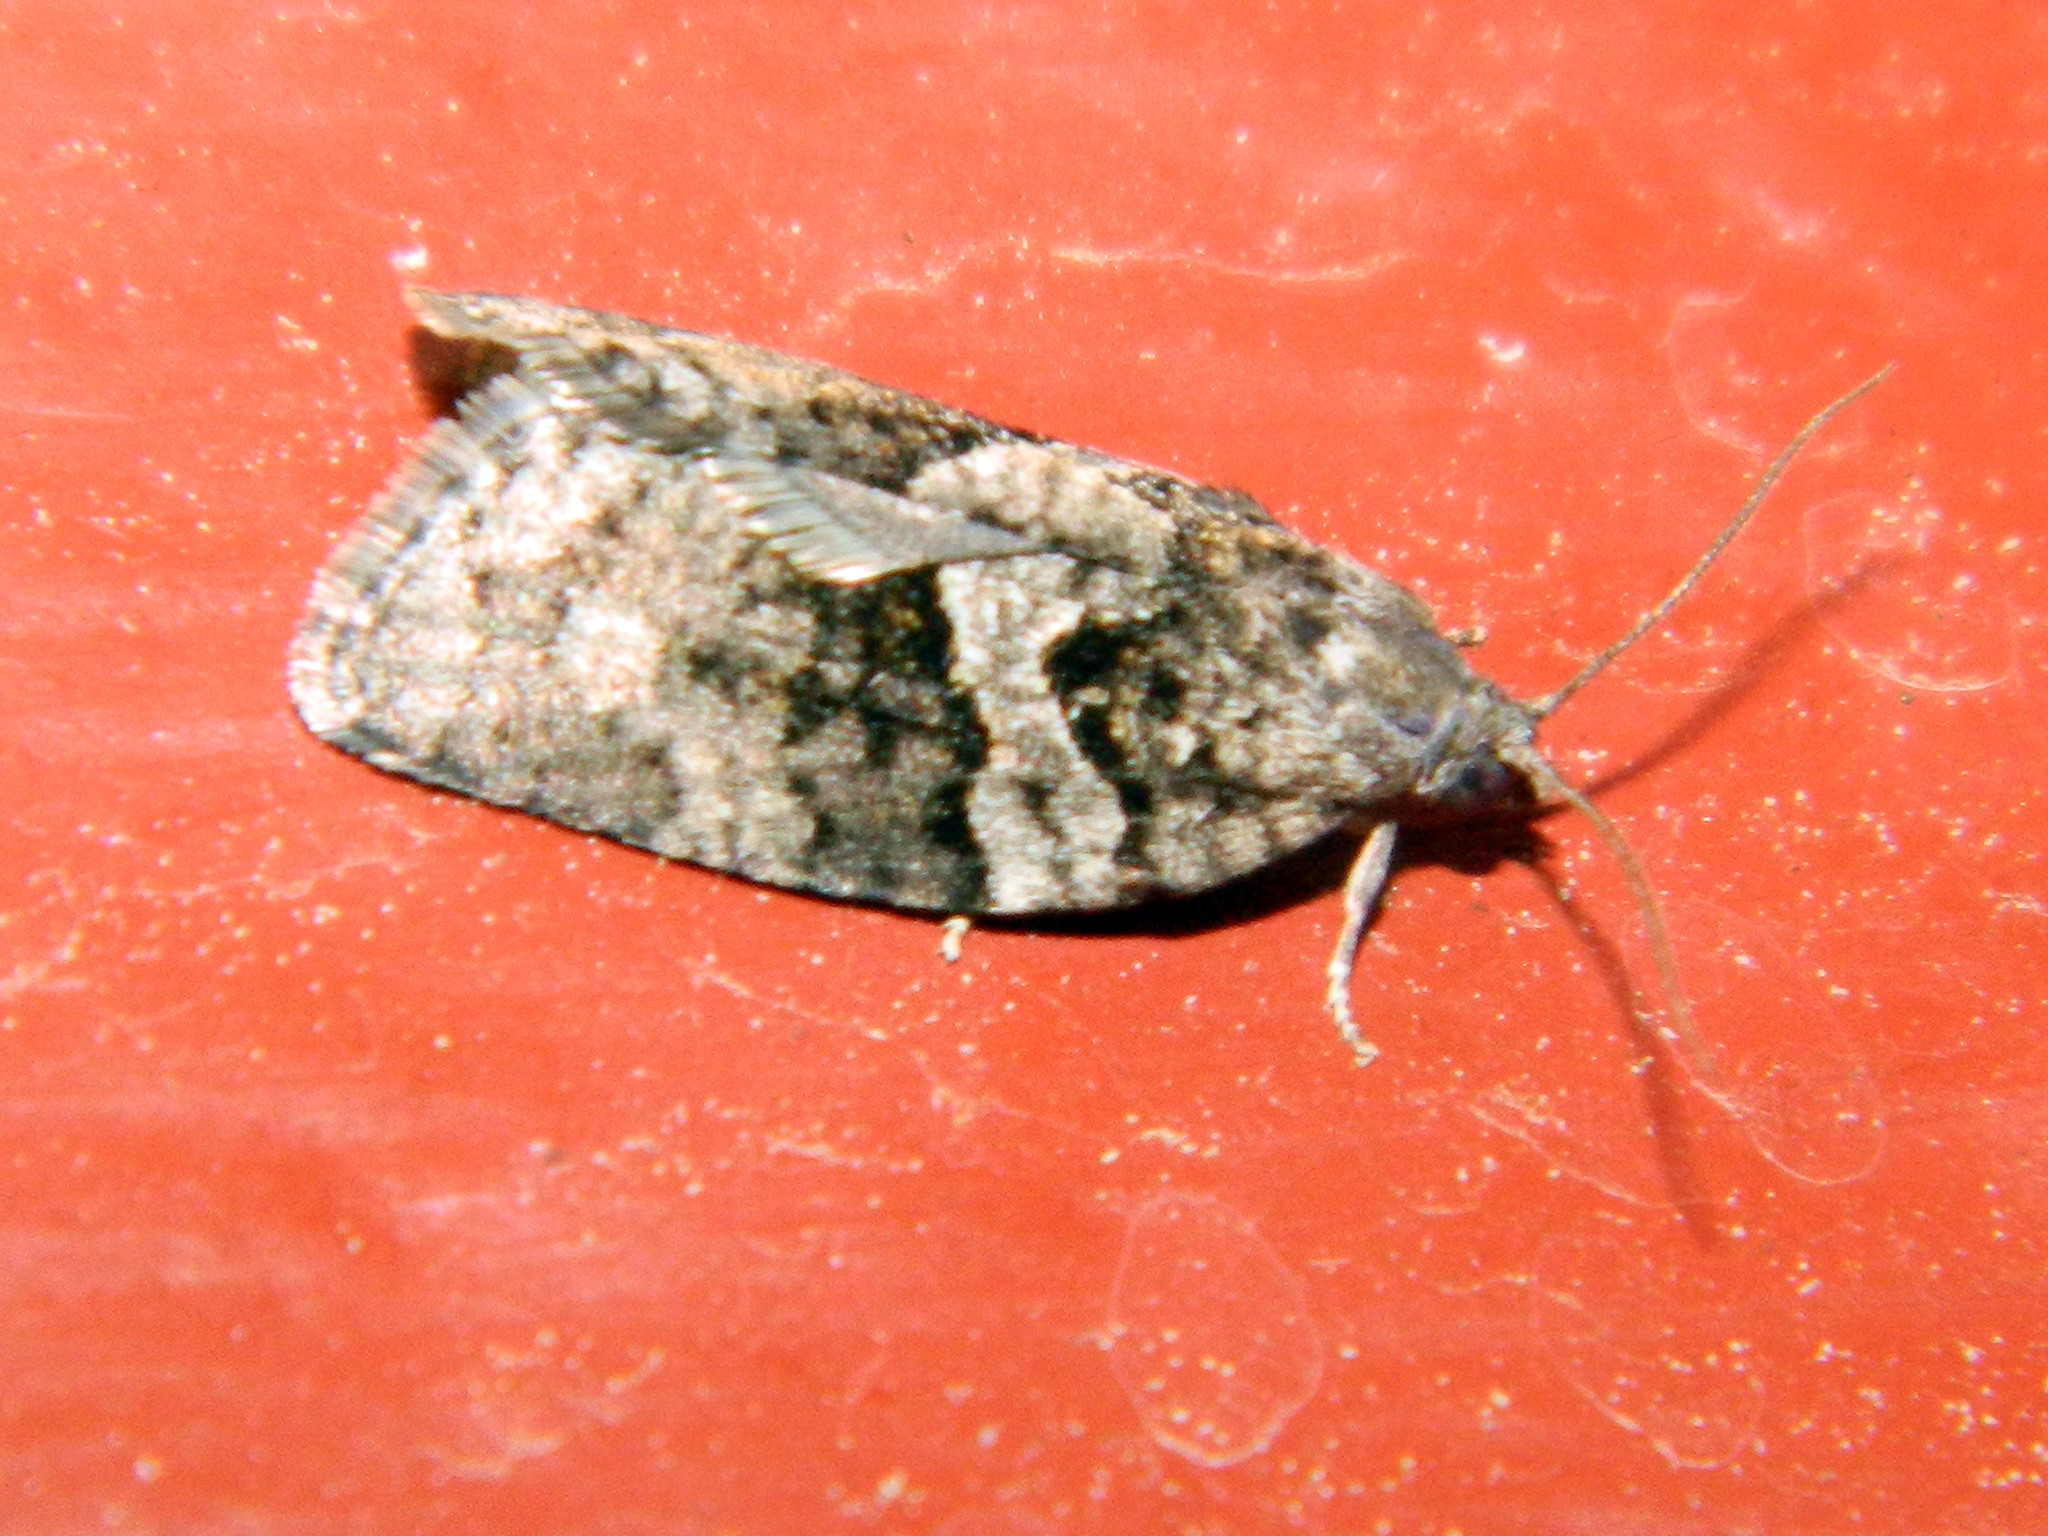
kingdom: Animalia
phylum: Arthropoda
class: Insecta
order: Lepidoptera
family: Tortricidae
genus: Syndemis
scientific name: Syndemis afflictana
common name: Gray leafroller moth
